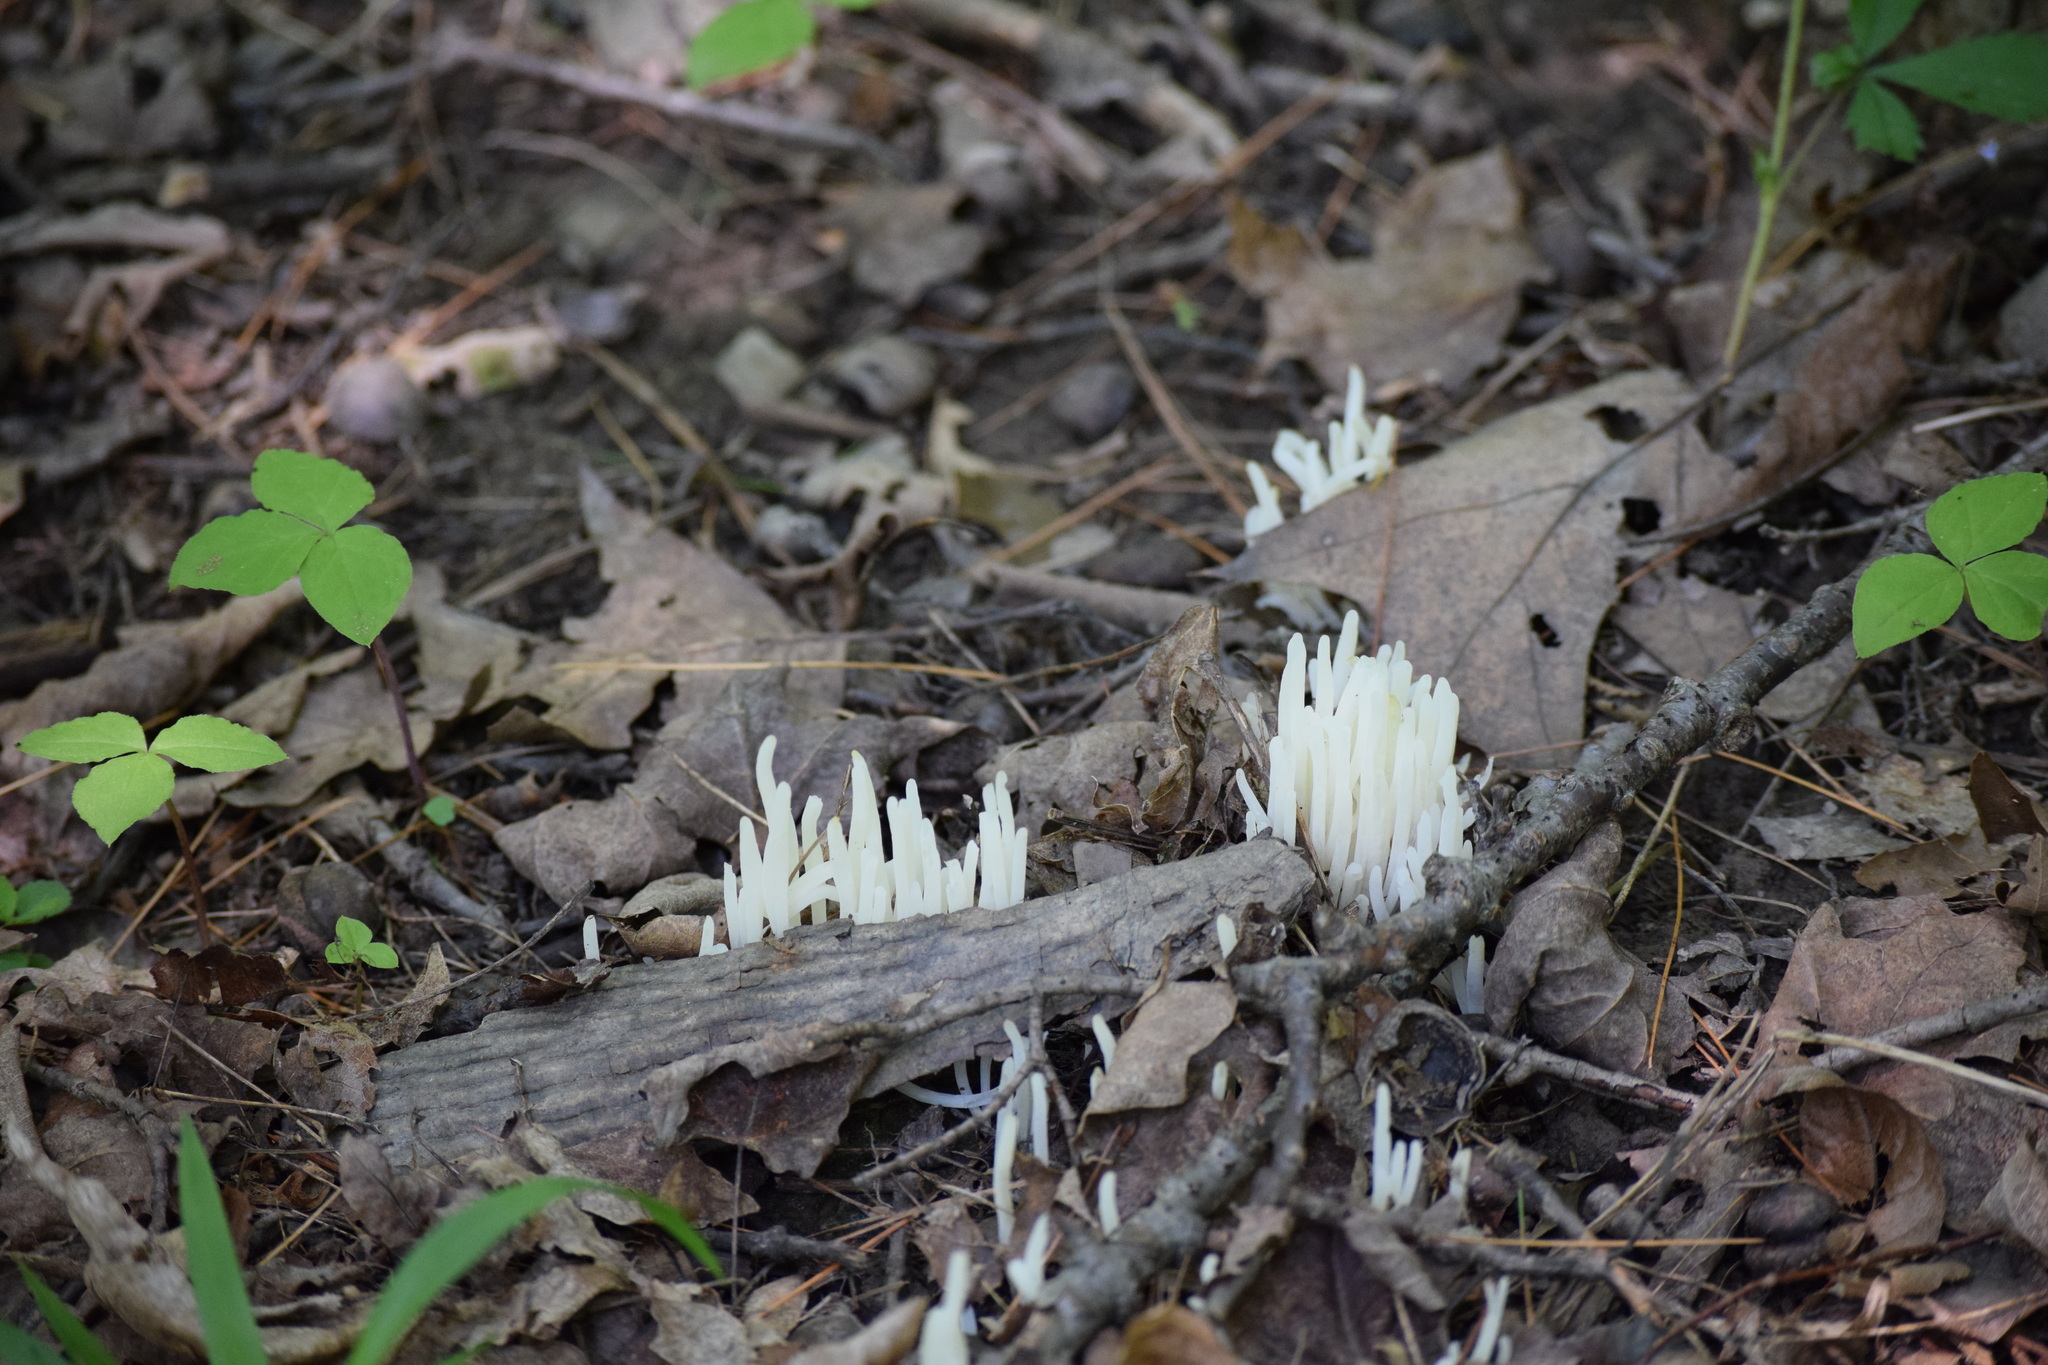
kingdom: Fungi
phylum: Basidiomycota
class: Agaricomycetes
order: Agaricales
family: Clavariaceae
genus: Clavaria
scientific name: Clavaria fragilis
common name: White spindles
